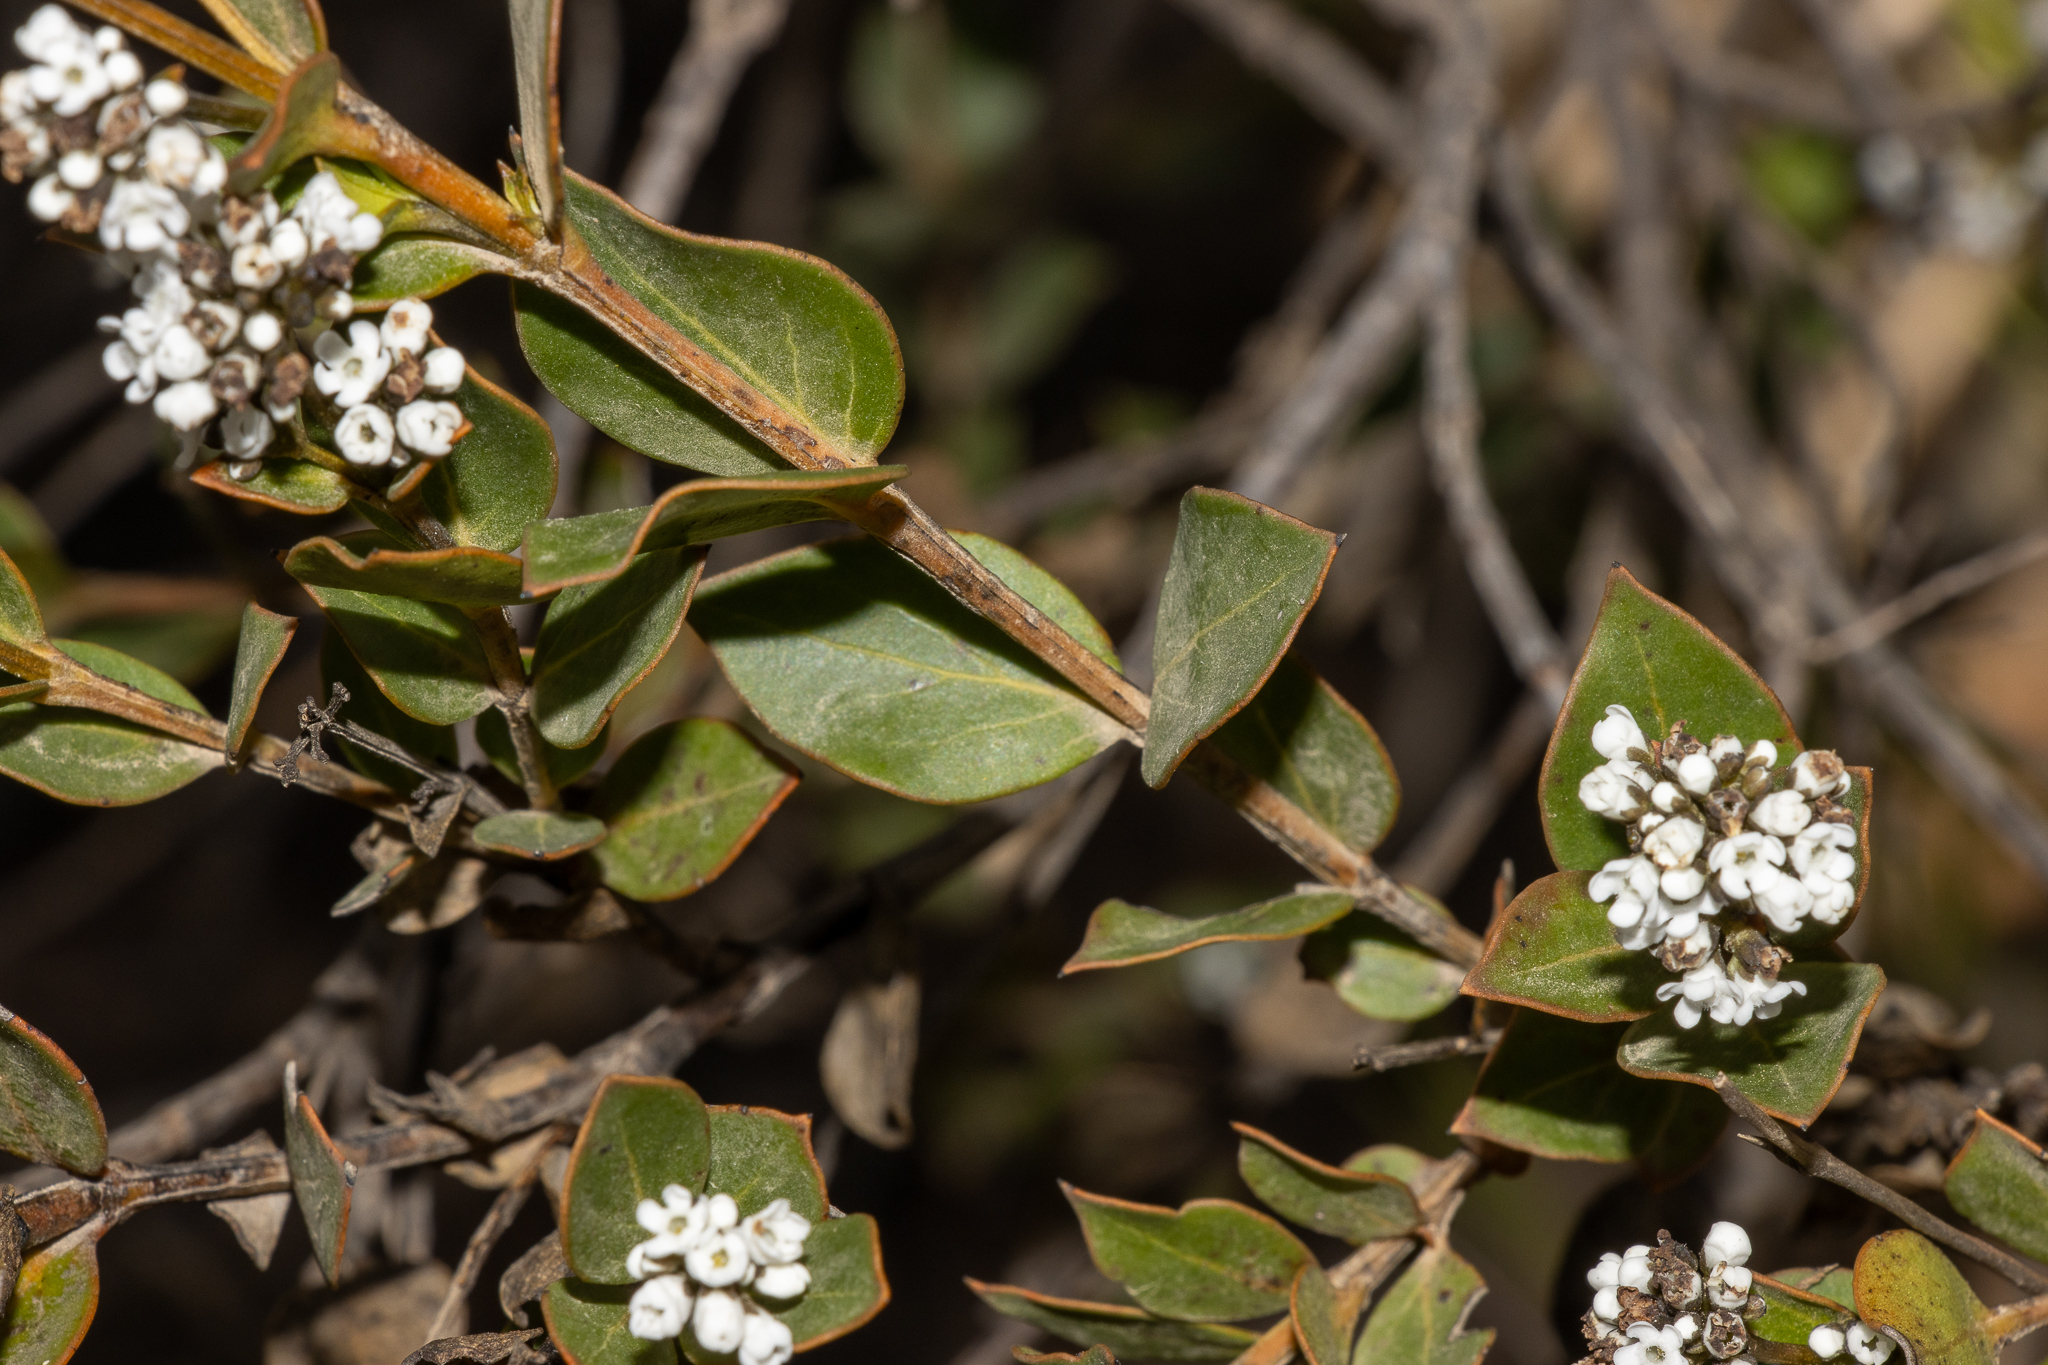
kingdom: Plantae
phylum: Tracheophyta
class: Magnoliopsida
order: Gentianales
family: Loganiaceae
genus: Logania
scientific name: Logania ovata
